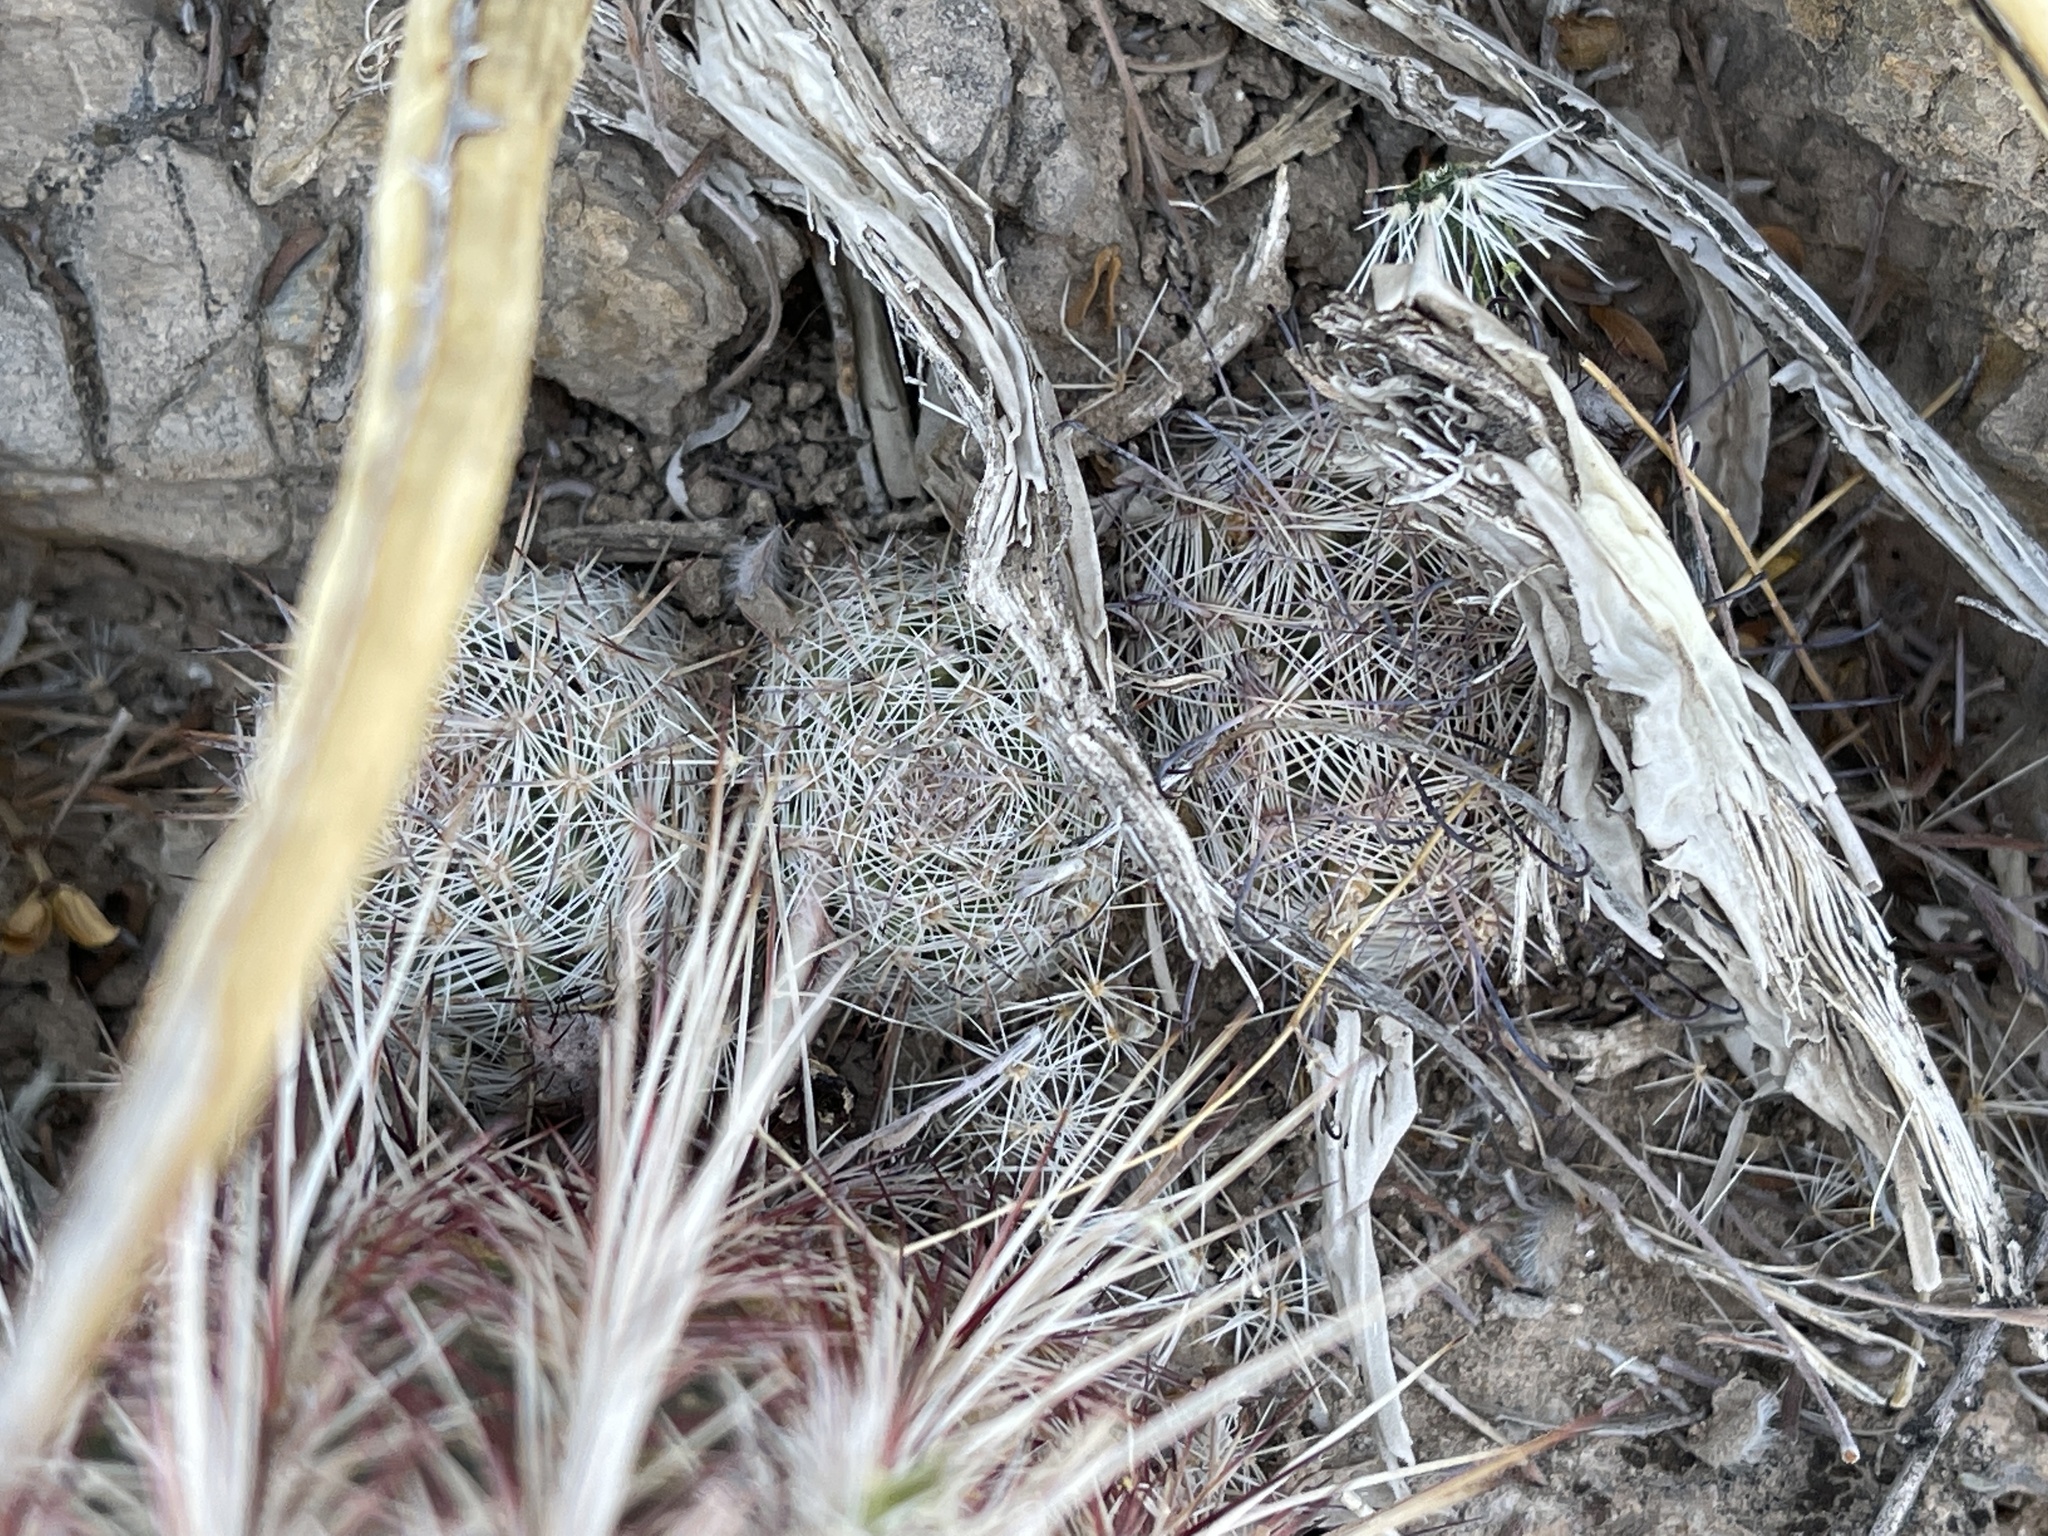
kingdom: Plantae
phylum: Tracheophyta
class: Magnoliopsida
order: Caryophyllales
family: Cactaceae
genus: Pelecyphora
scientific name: Pelecyphora tuberculosa
